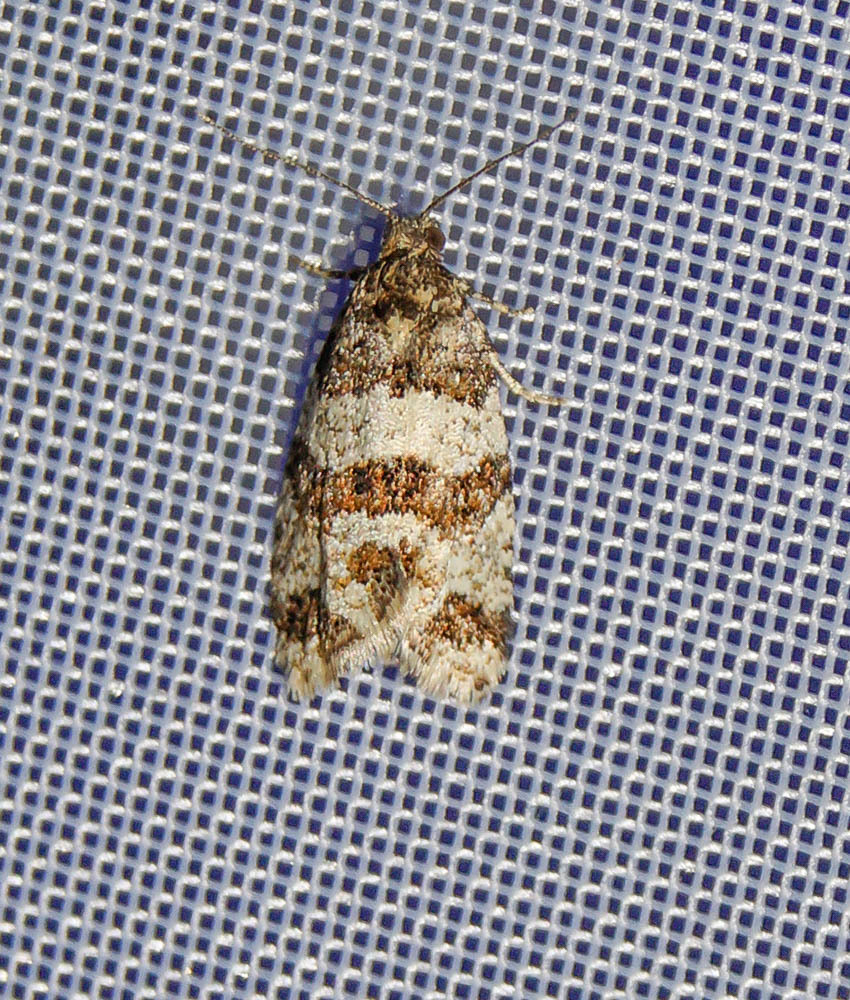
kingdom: Animalia
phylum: Arthropoda
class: Insecta
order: Lepidoptera
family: Tortricidae
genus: Isotrias
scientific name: Isotrias rectifasciana
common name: Hedge shade
